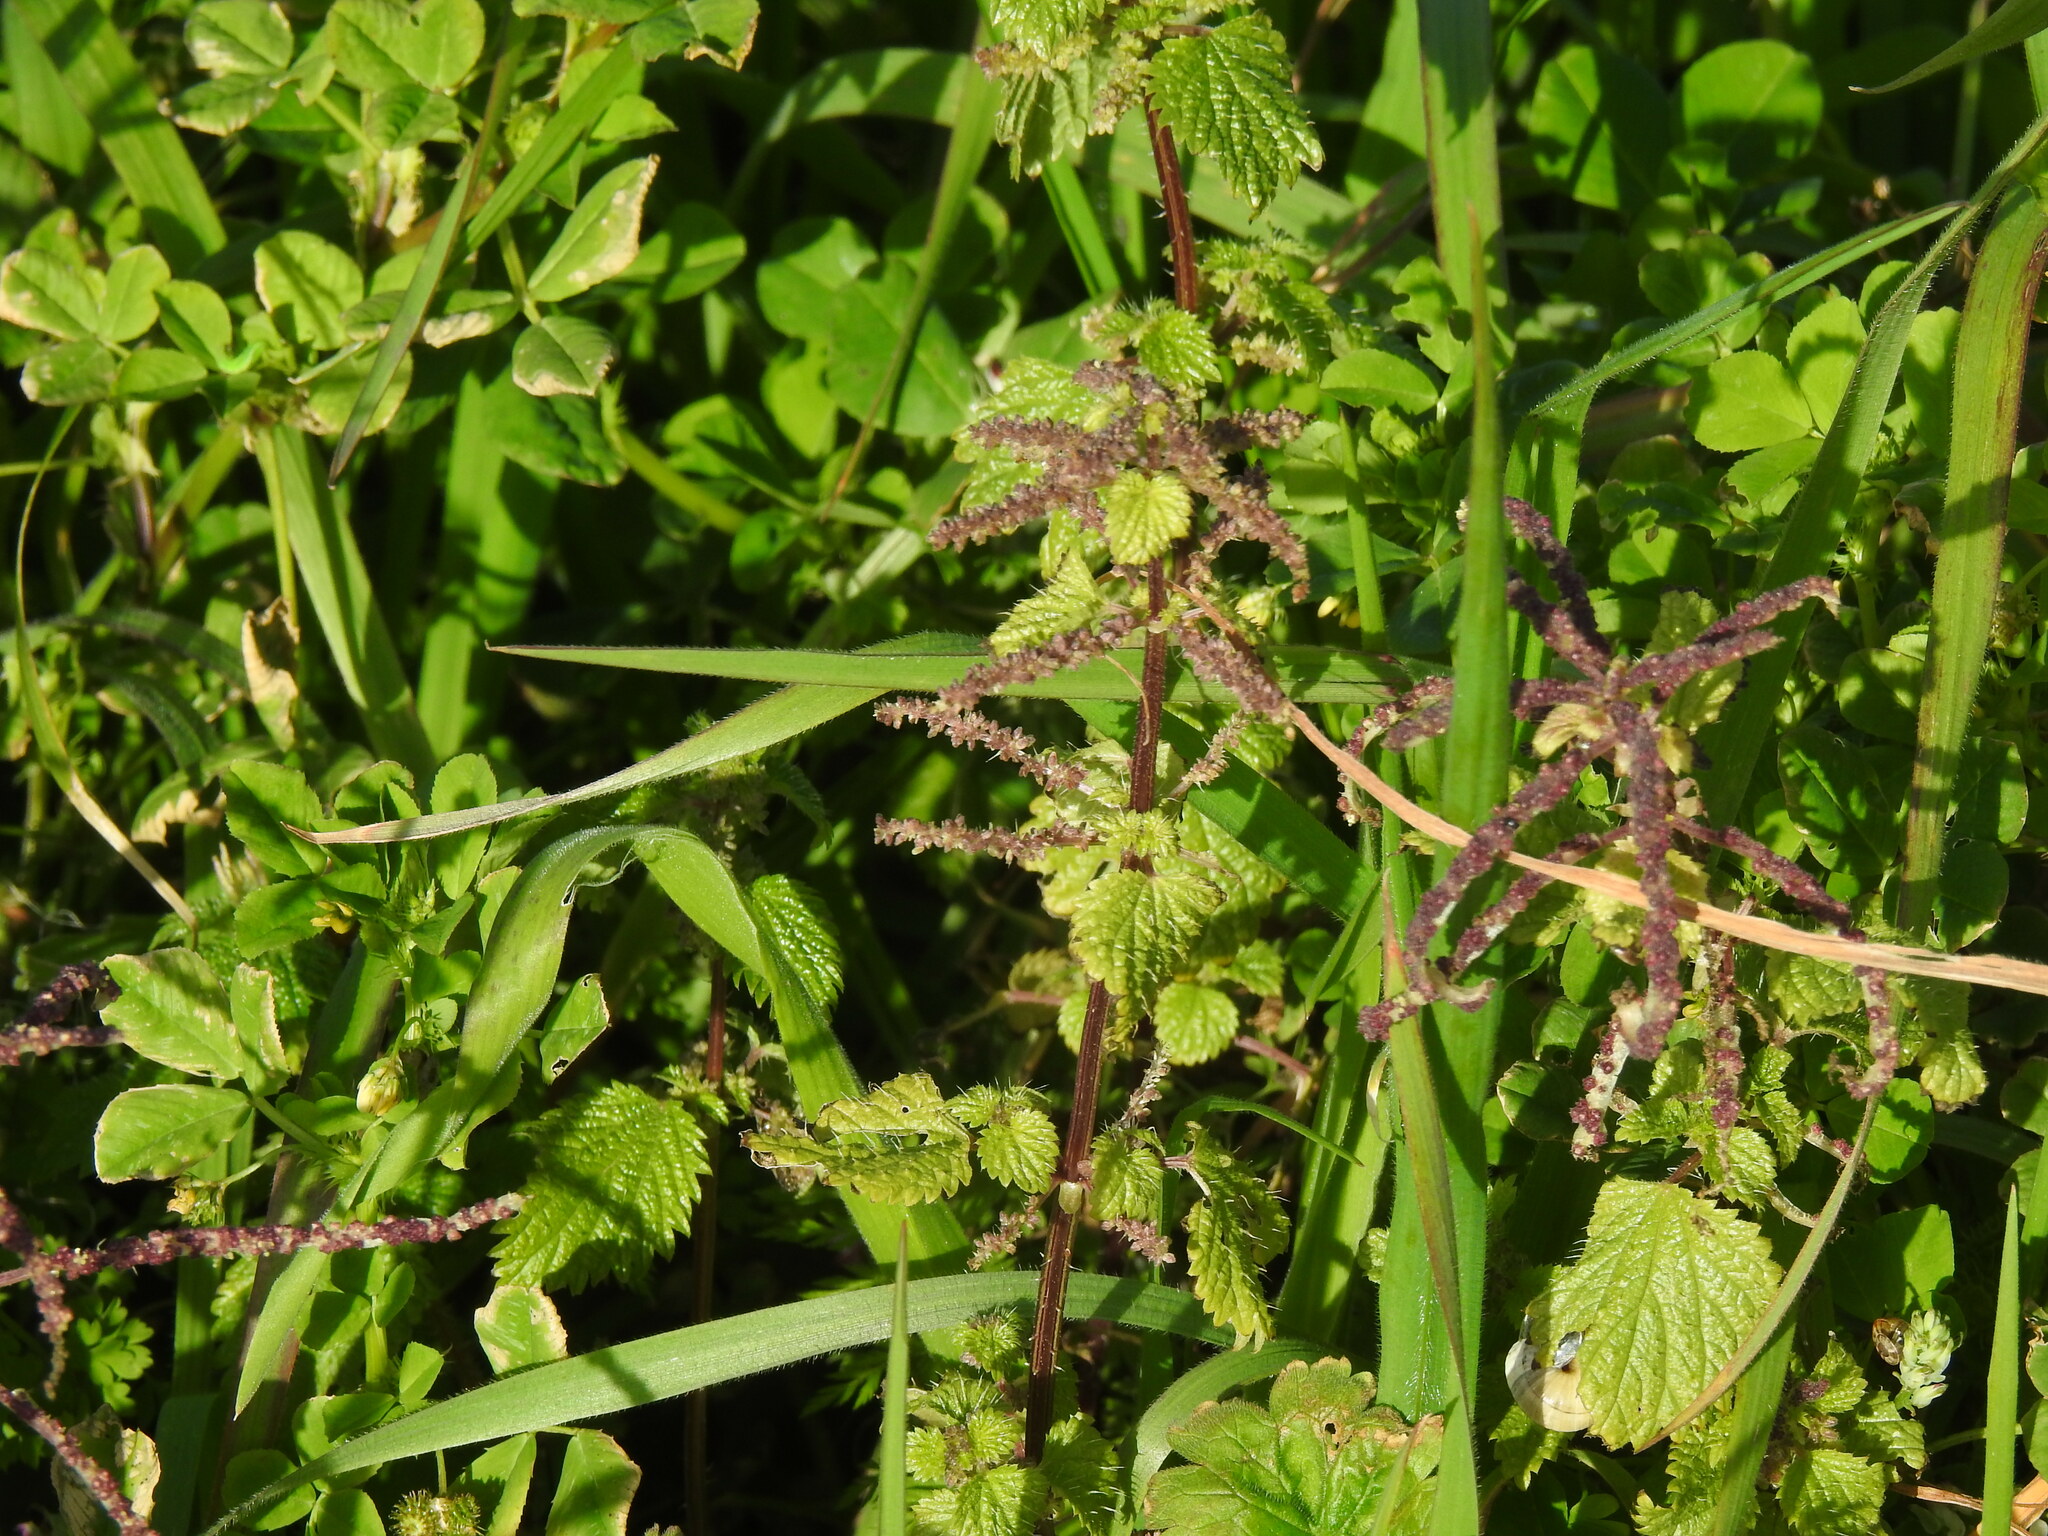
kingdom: Plantae
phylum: Tracheophyta
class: Magnoliopsida
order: Rosales
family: Urticaceae
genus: Urtica
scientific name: Urtica membranacea
